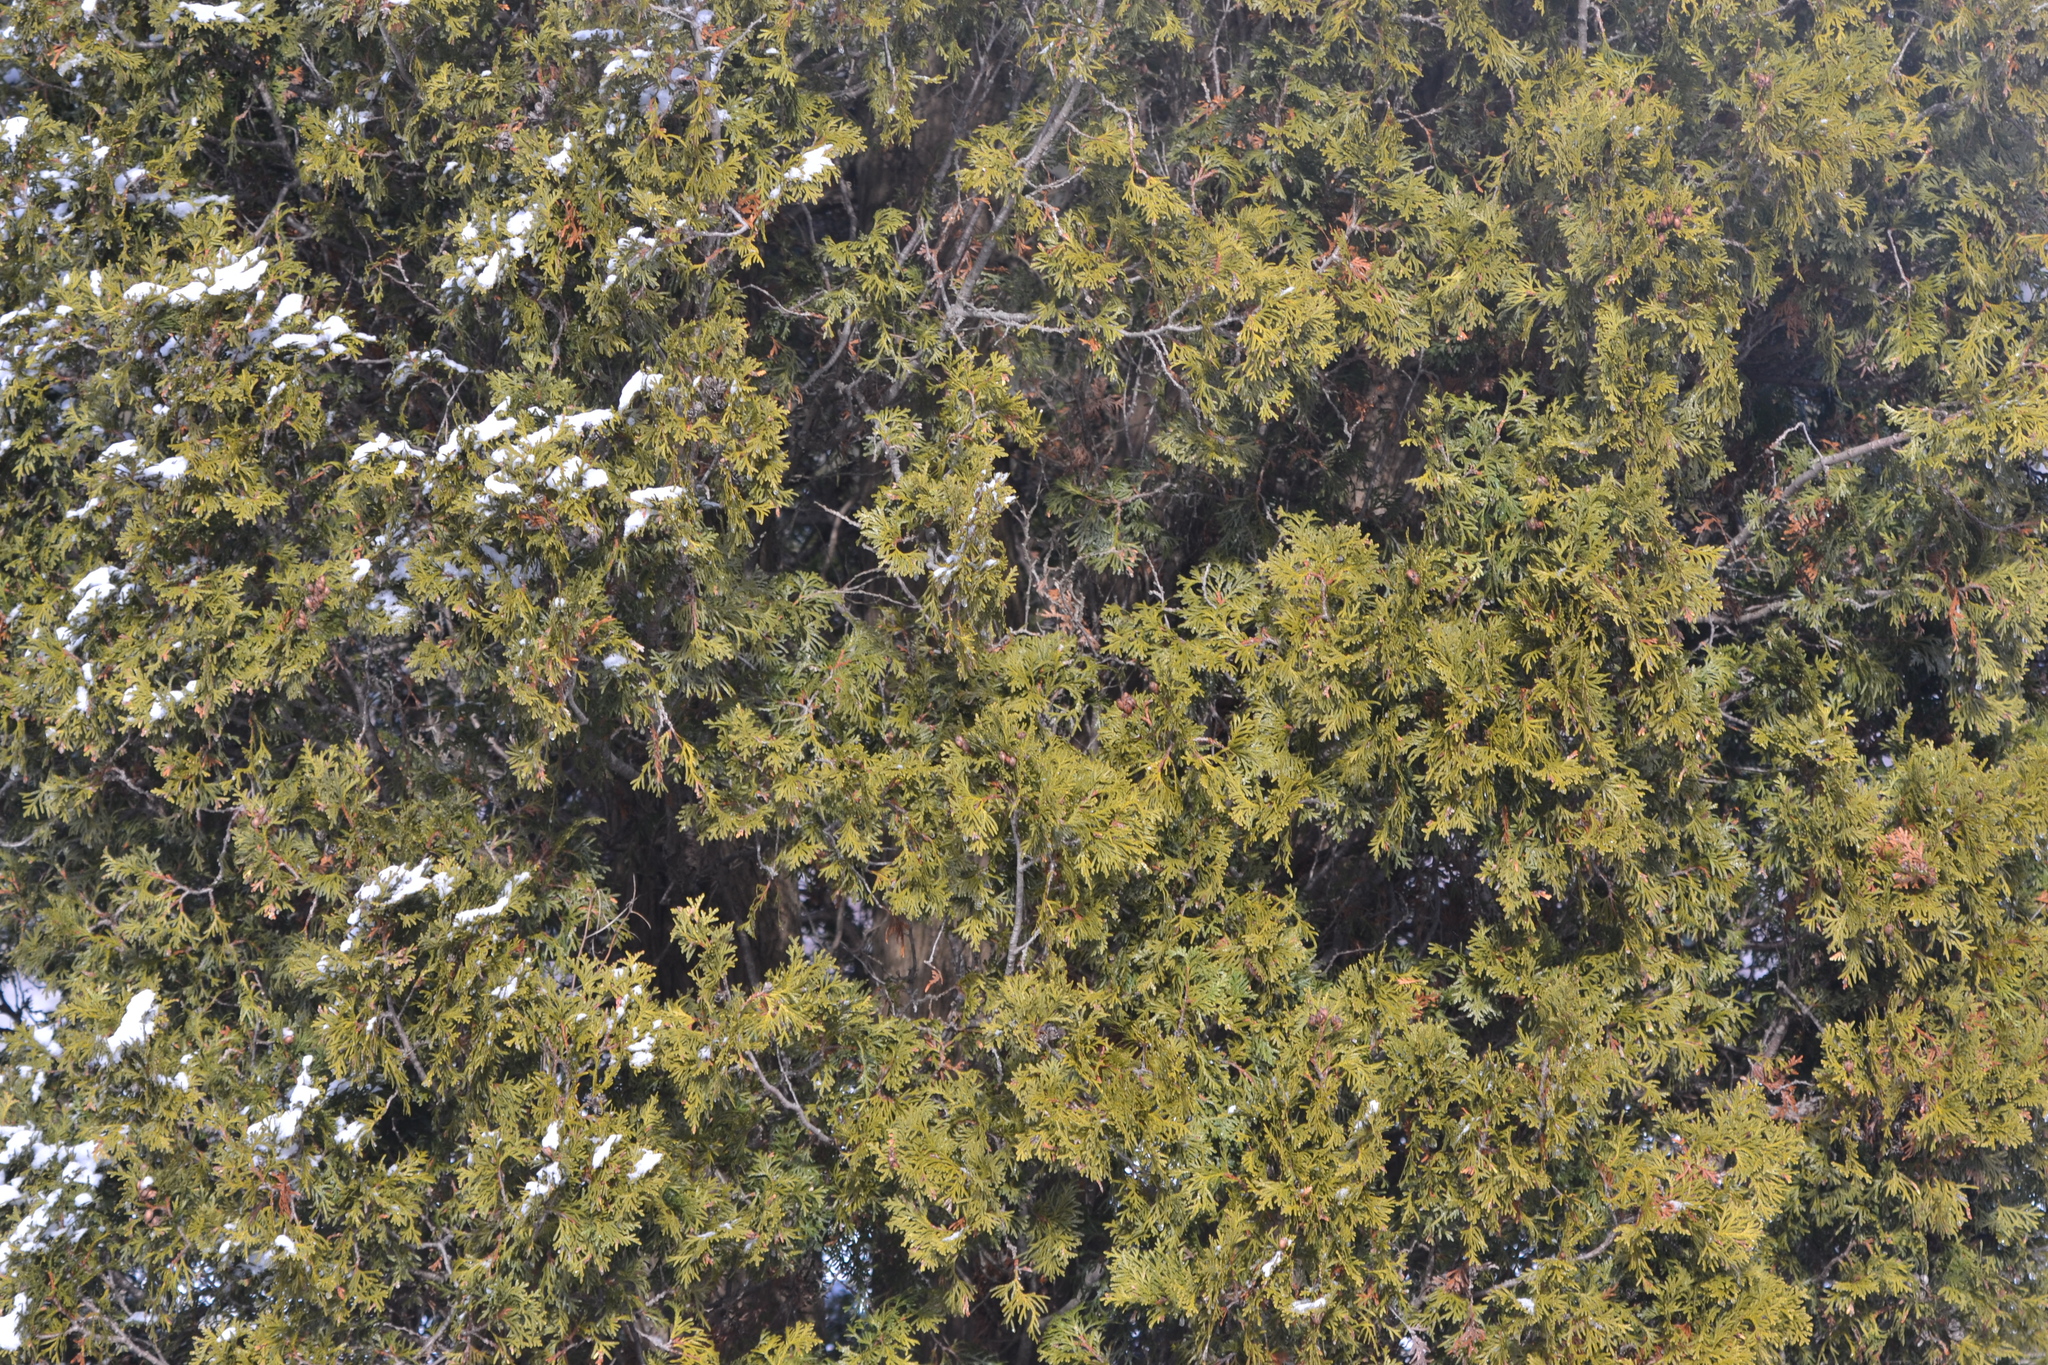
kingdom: Plantae
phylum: Tracheophyta
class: Pinopsida
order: Pinales
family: Cupressaceae
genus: Thuja
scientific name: Thuja occidentalis
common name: Northern white-cedar
